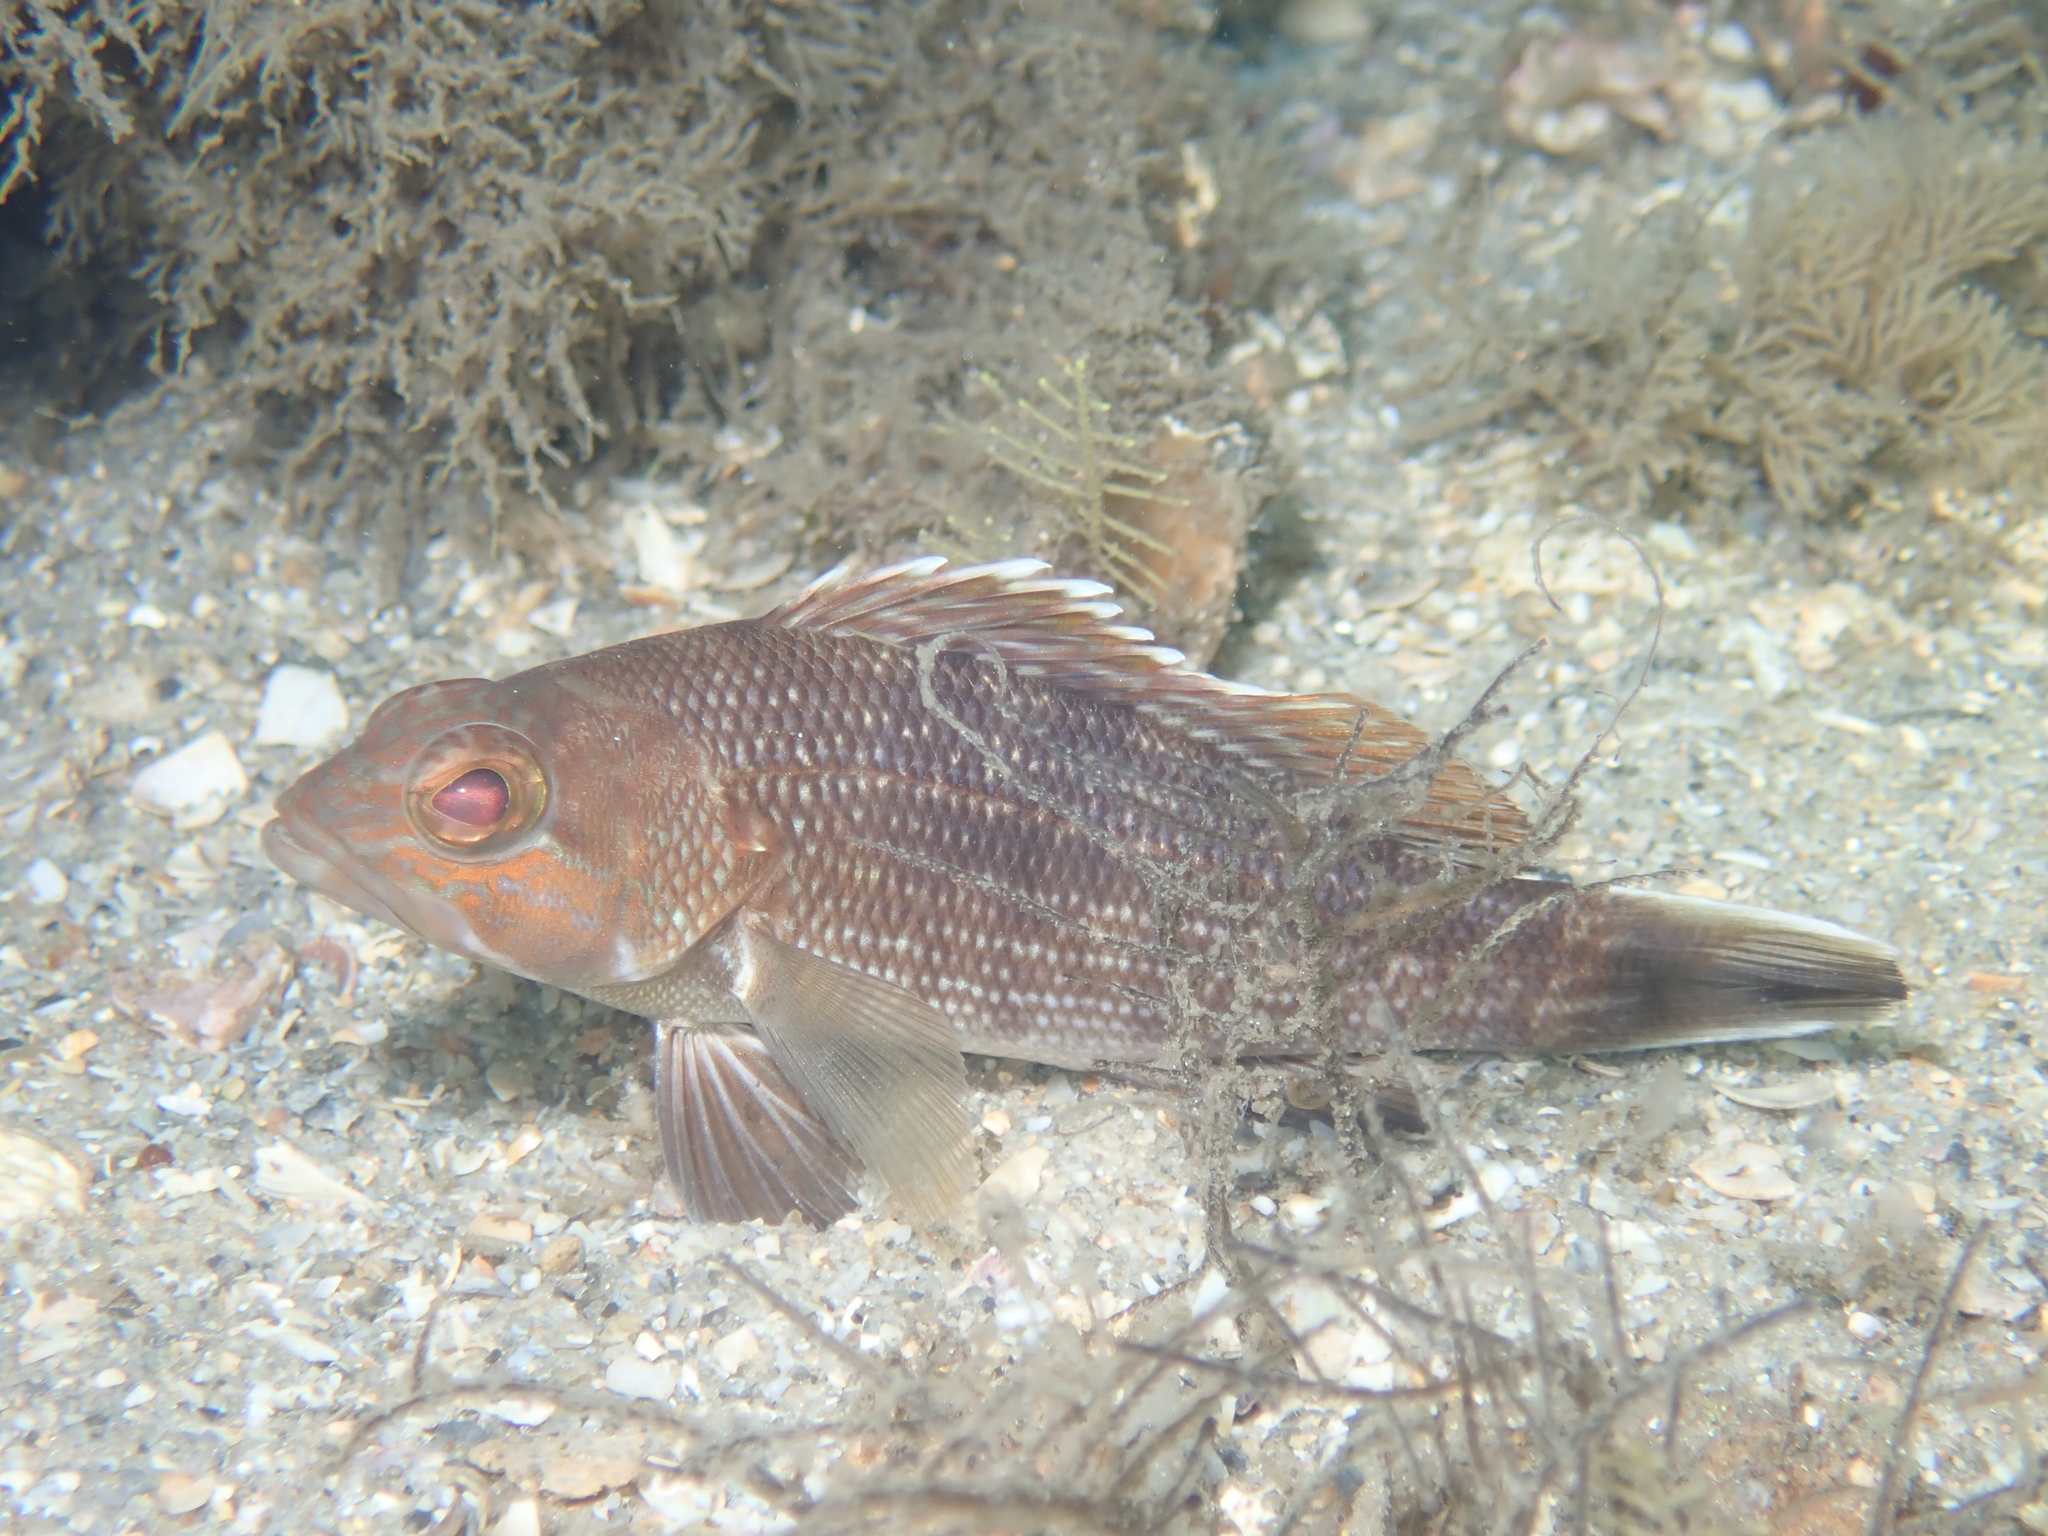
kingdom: Animalia
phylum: Chordata
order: Perciformes
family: Serranidae
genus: Centropristis
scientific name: Centropristis striata
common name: Black sea bass
